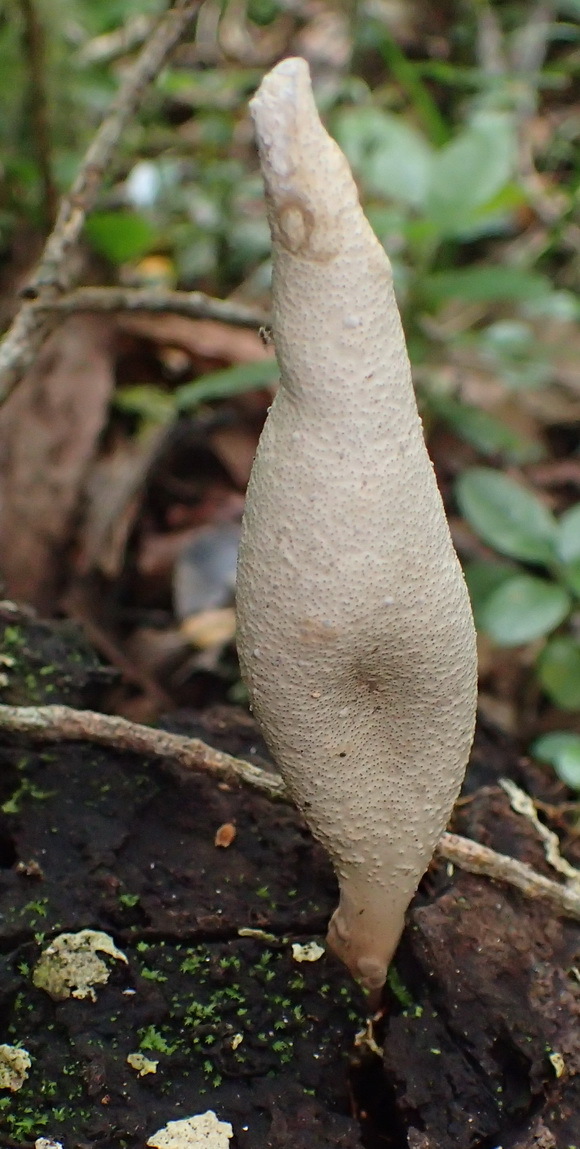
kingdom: Fungi
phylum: Ascomycota
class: Sordariomycetes
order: Xylariales
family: Xylariaceae
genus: Xylaria
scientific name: Xylaria telfairii
